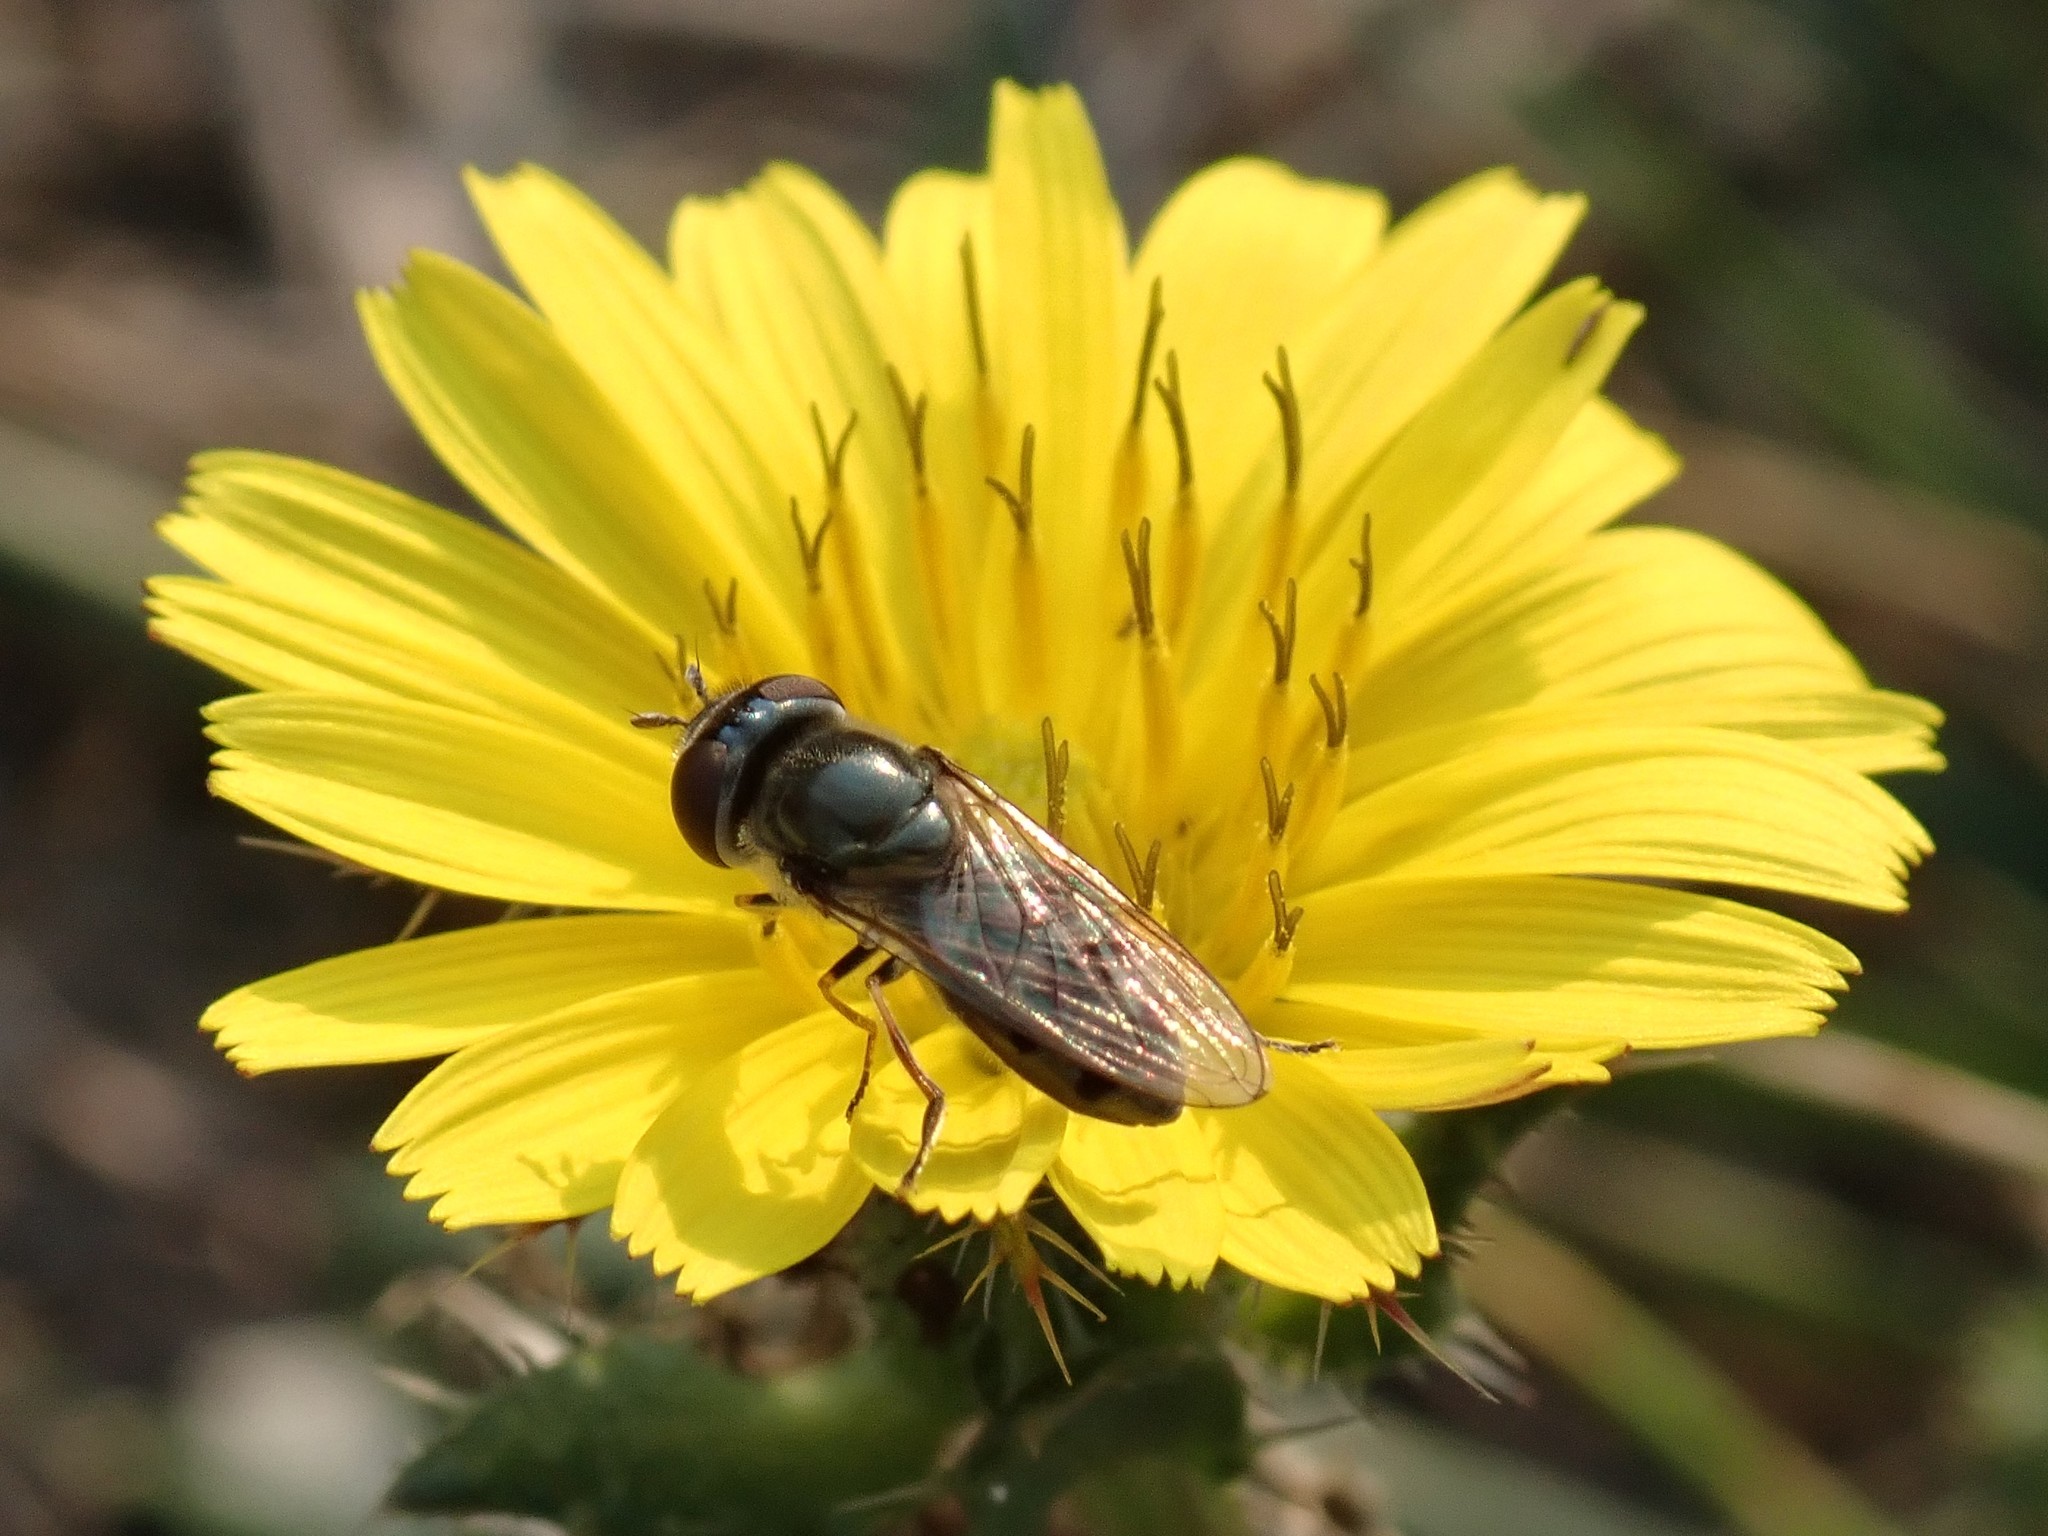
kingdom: Animalia
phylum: Arthropoda
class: Insecta
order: Diptera
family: Syrphidae
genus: Platycheirus
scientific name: Platycheirus
